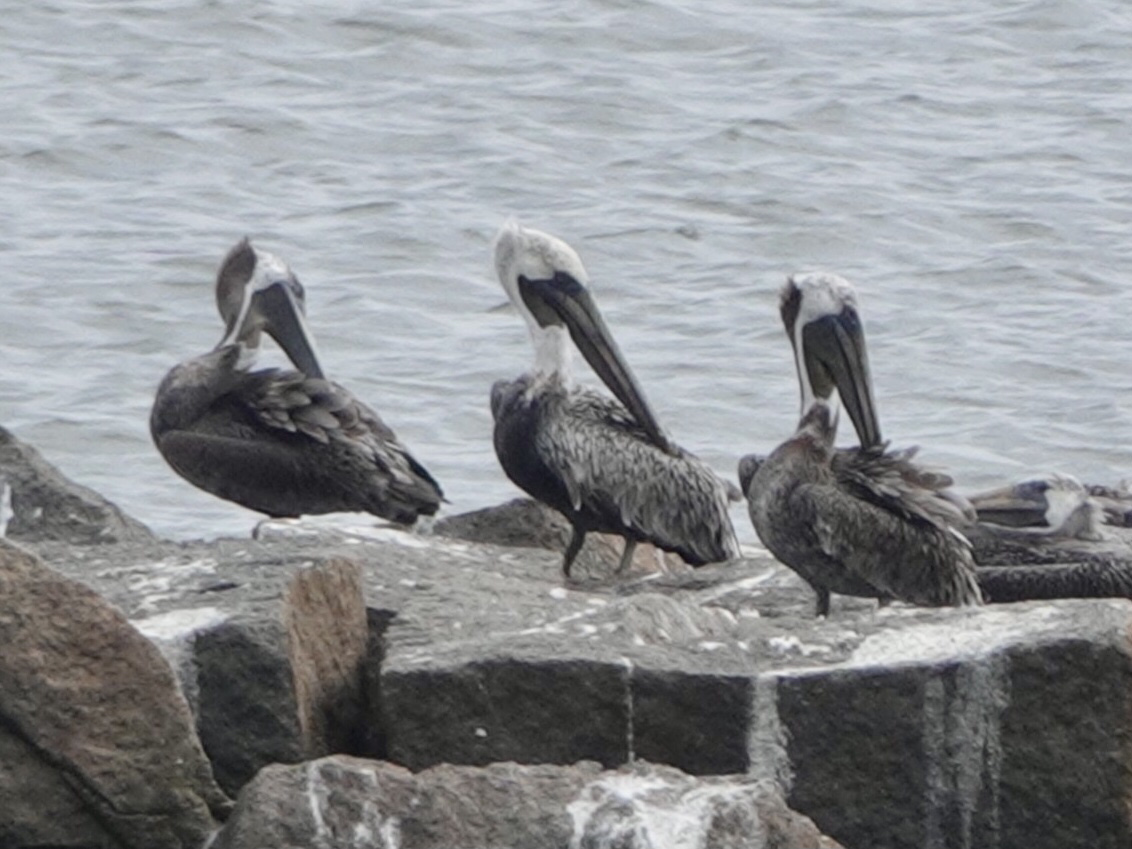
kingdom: Animalia
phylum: Chordata
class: Aves
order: Pelecaniformes
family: Pelecanidae
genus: Pelecanus
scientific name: Pelecanus occidentalis
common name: Brown pelican
